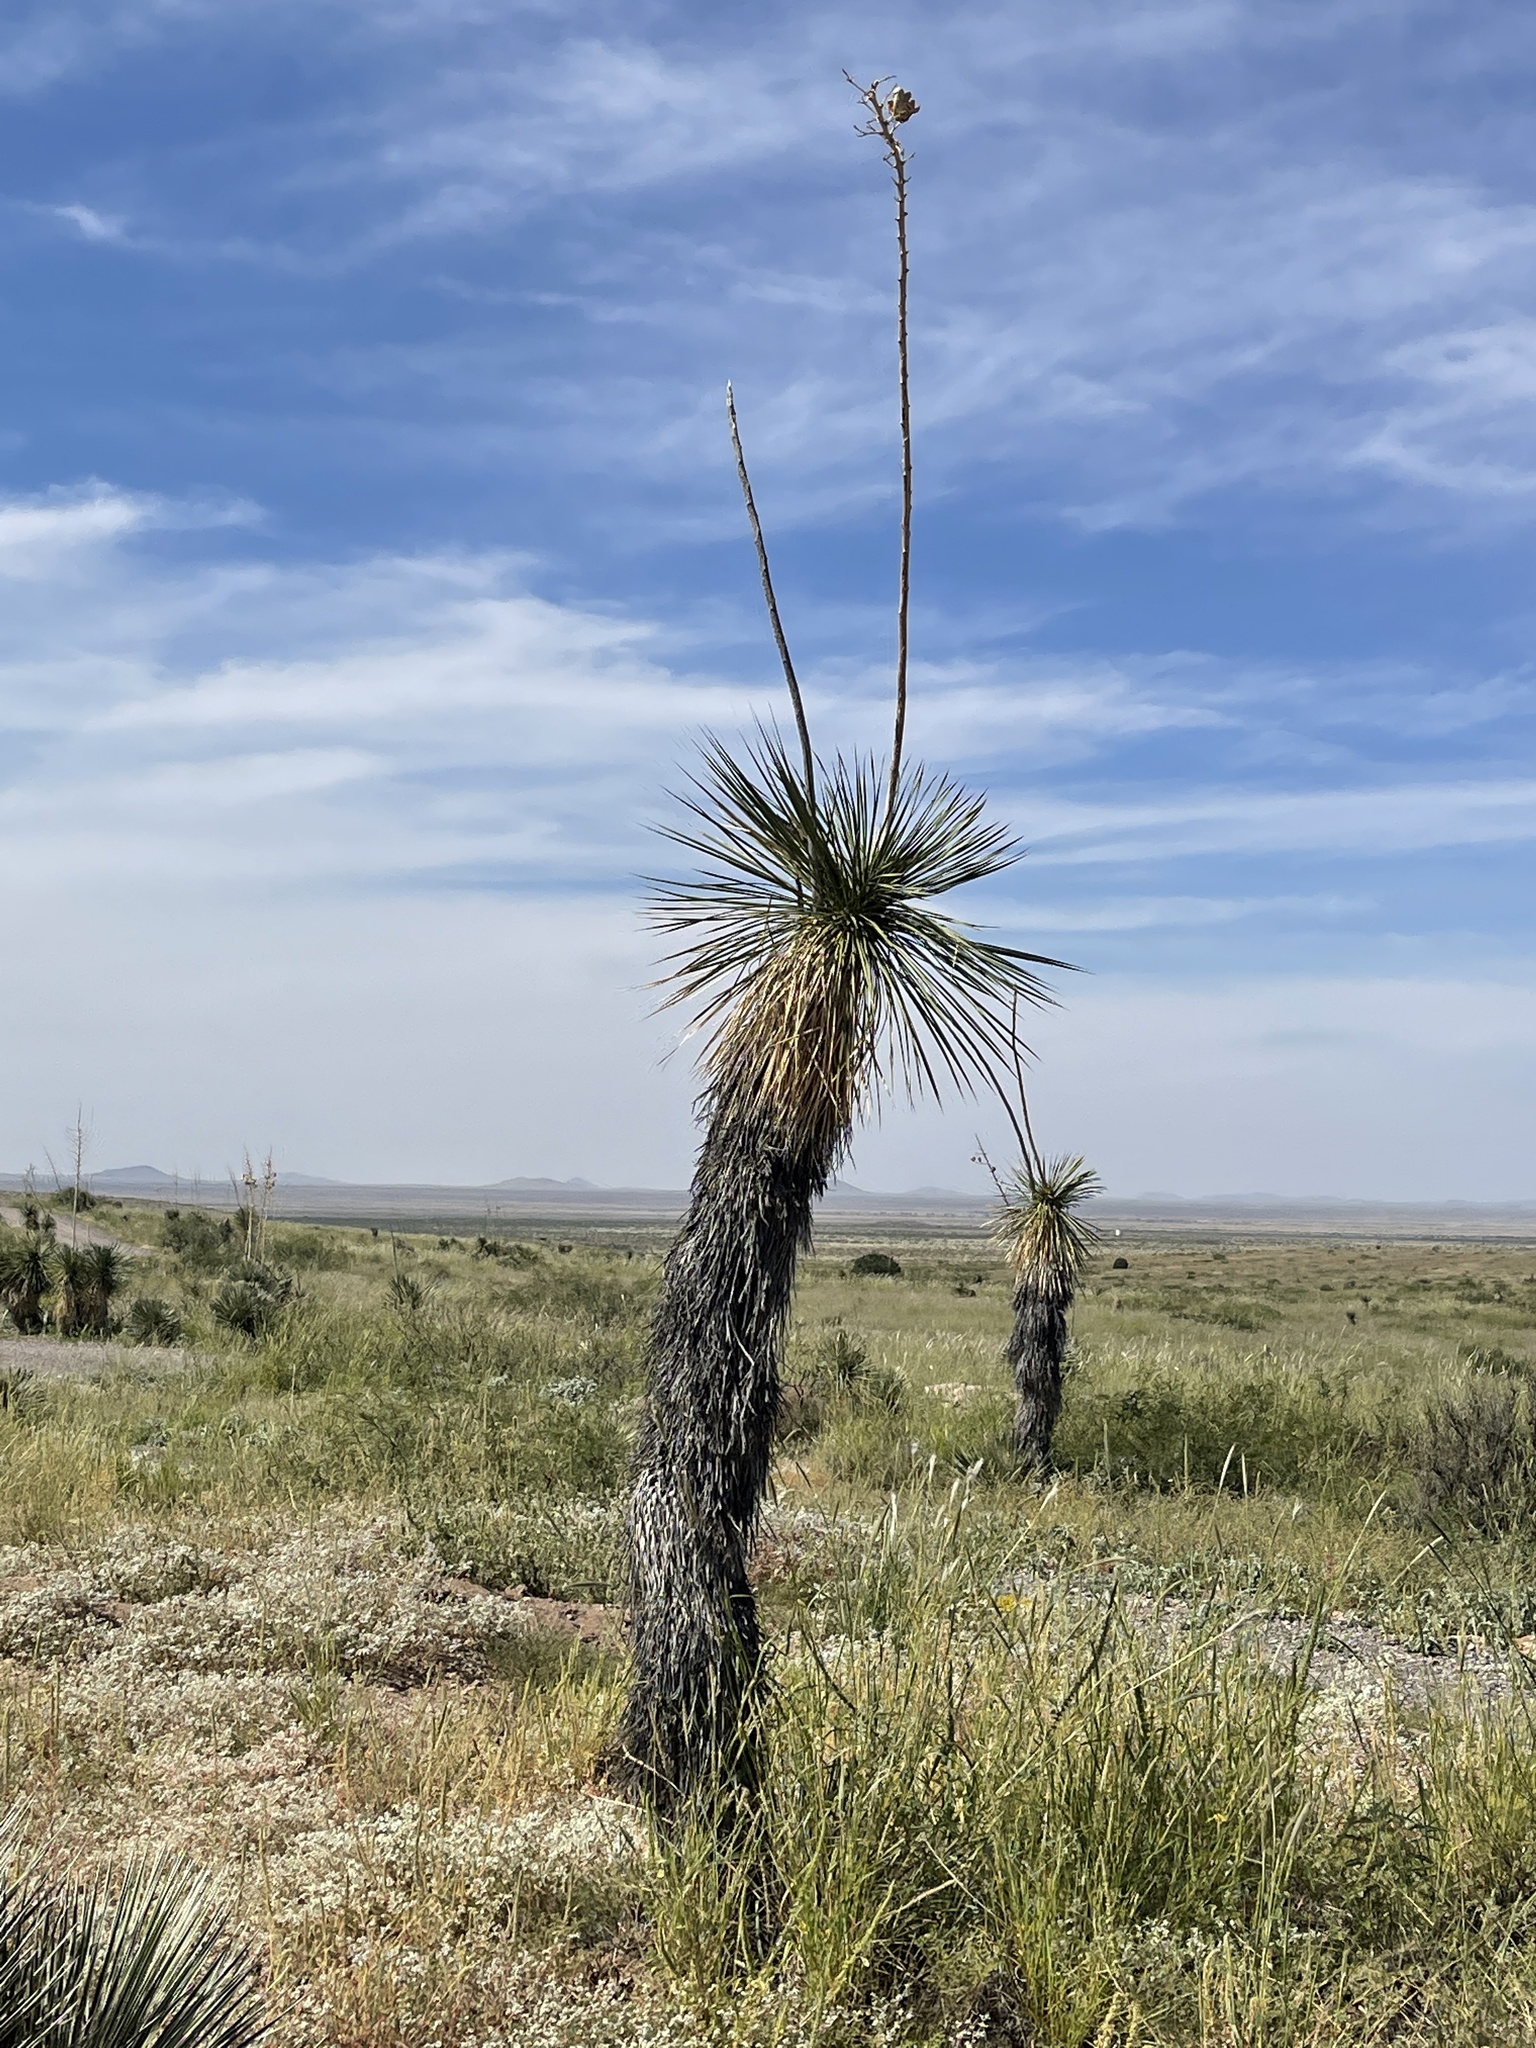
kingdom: Plantae
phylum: Tracheophyta
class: Liliopsida
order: Asparagales
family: Asparagaceae
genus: Yucca
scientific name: Yucca elata
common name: Palmella
